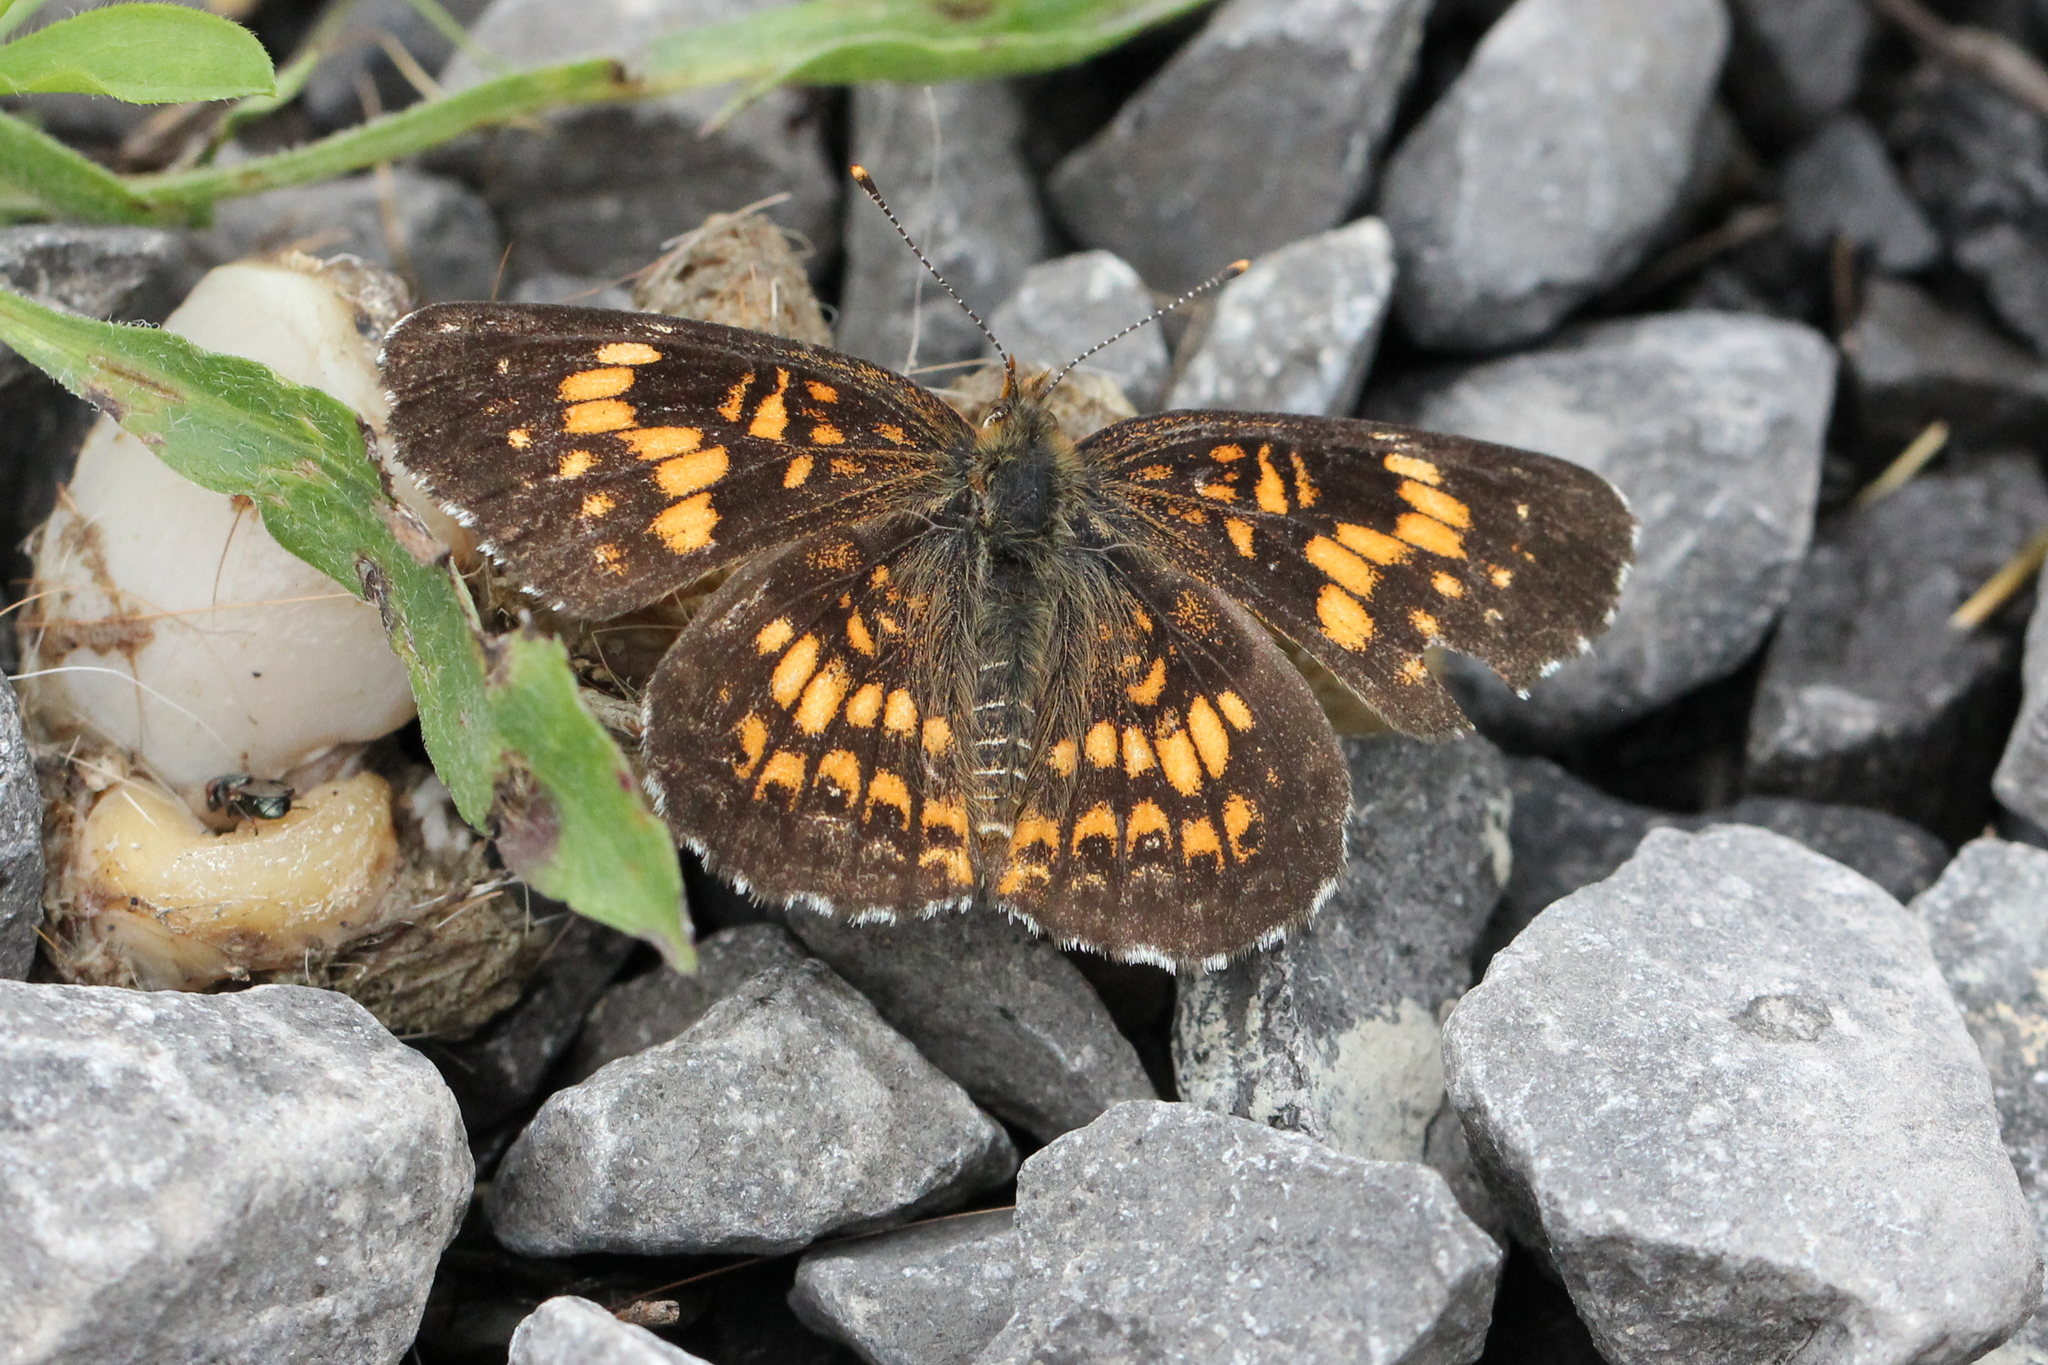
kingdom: Animalia
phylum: Arthropoda
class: Insecta
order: Lepidoptera
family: Nymphalidae
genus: Chlosyne
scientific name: Chlosyne harrisii
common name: Harris's checkerspot
